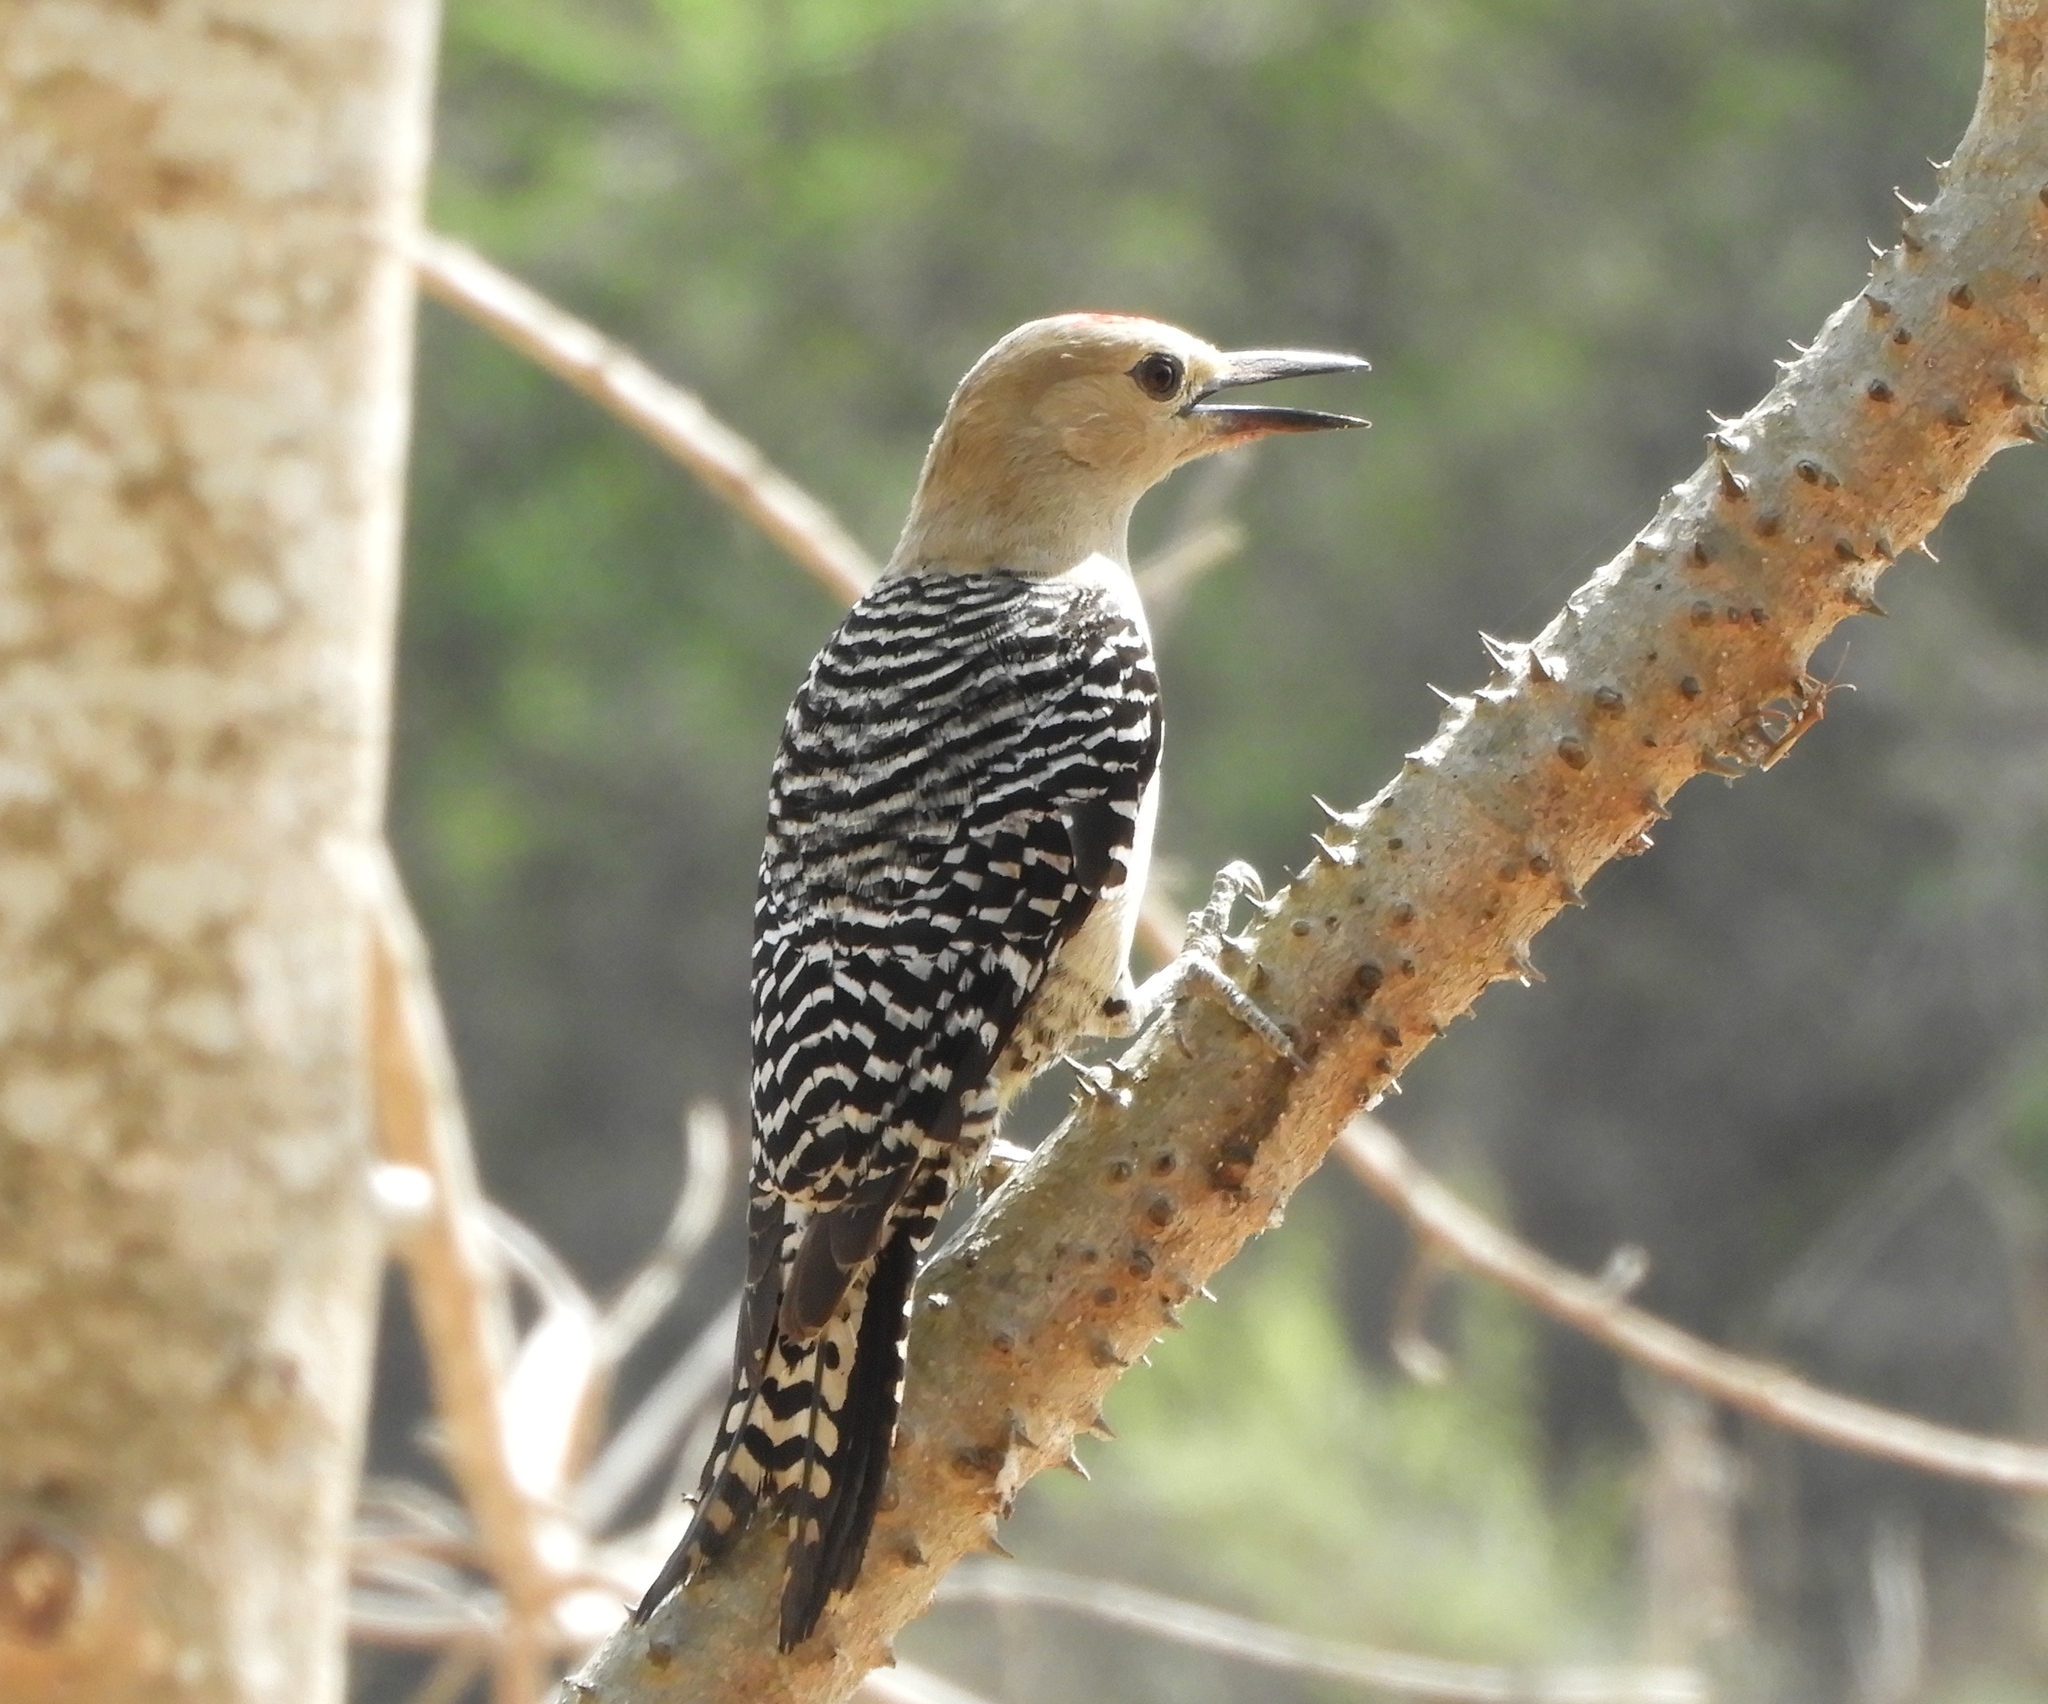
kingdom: Animalia
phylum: Chordata
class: Aves
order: Piciformes
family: Picidae
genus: Melanerpes
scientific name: Melanerpes uropygialis
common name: Gila woodpecker
